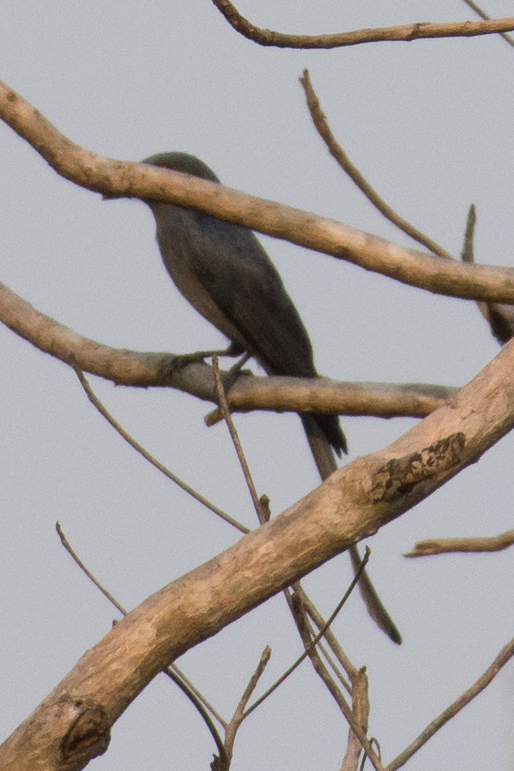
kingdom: Animalia
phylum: Chordata
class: Aves
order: Passeriformes
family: Dicruridae
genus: Dicrurus
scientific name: Dicrurus leucophaeus
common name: Ashy drongo
